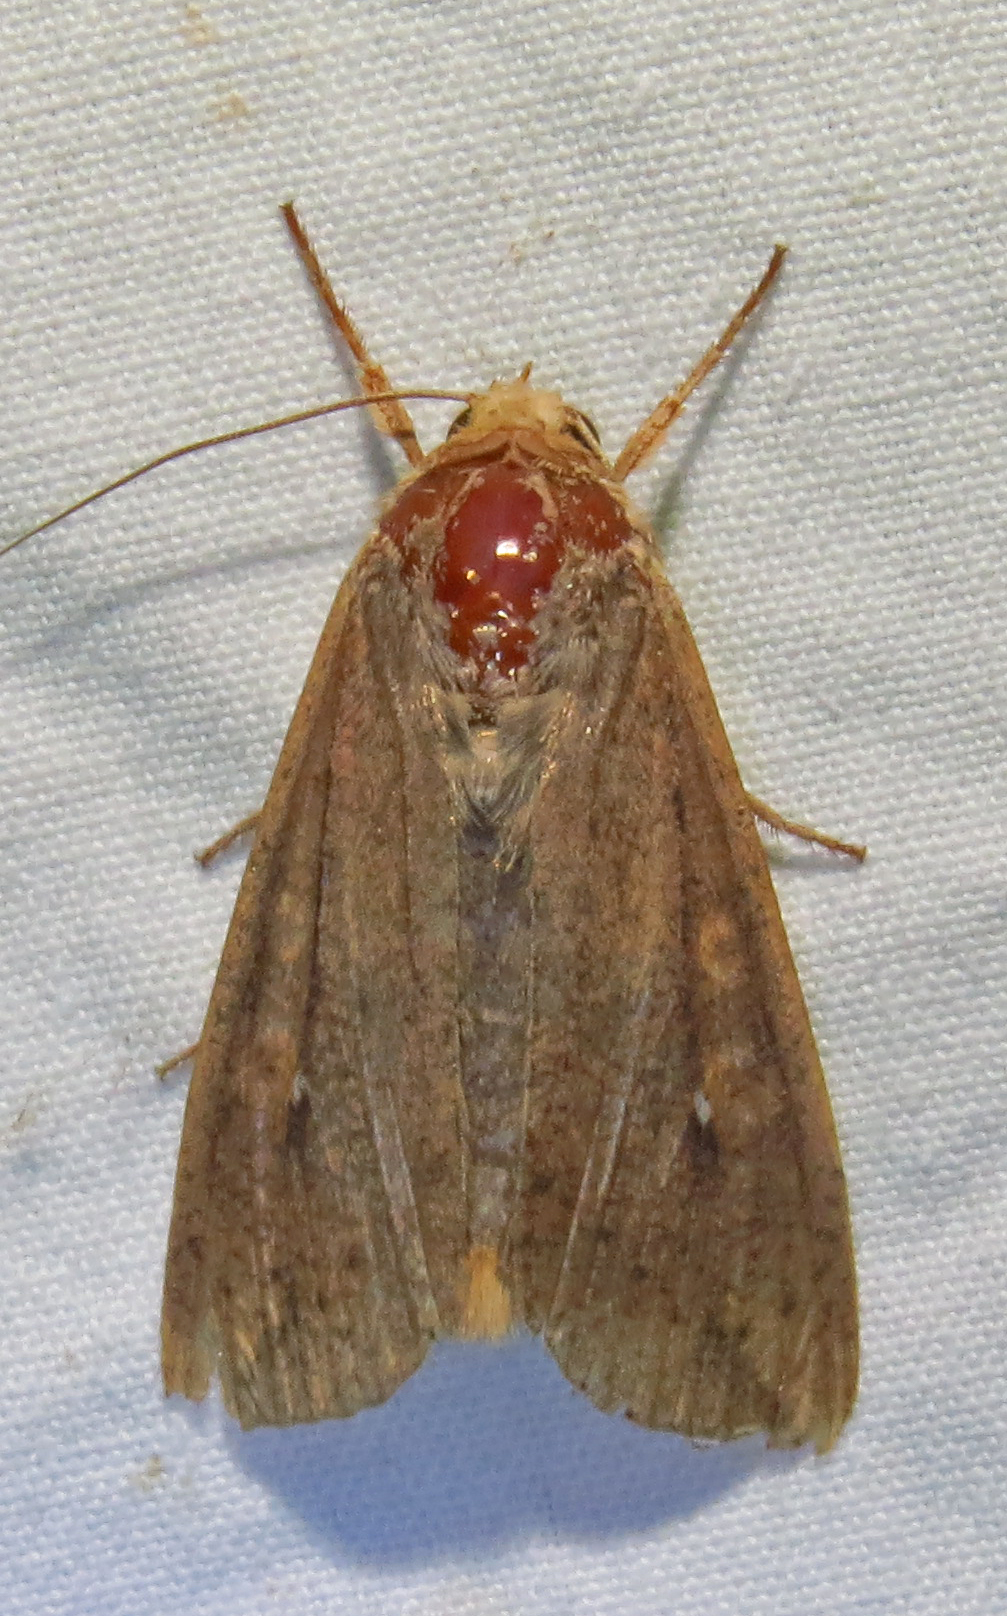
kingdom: Animalia
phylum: Arthropoda
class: Insecta
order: Lepidoptera
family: Noctuidae
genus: Mythimna
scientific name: Mythimna unipuncta
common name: White-speck
